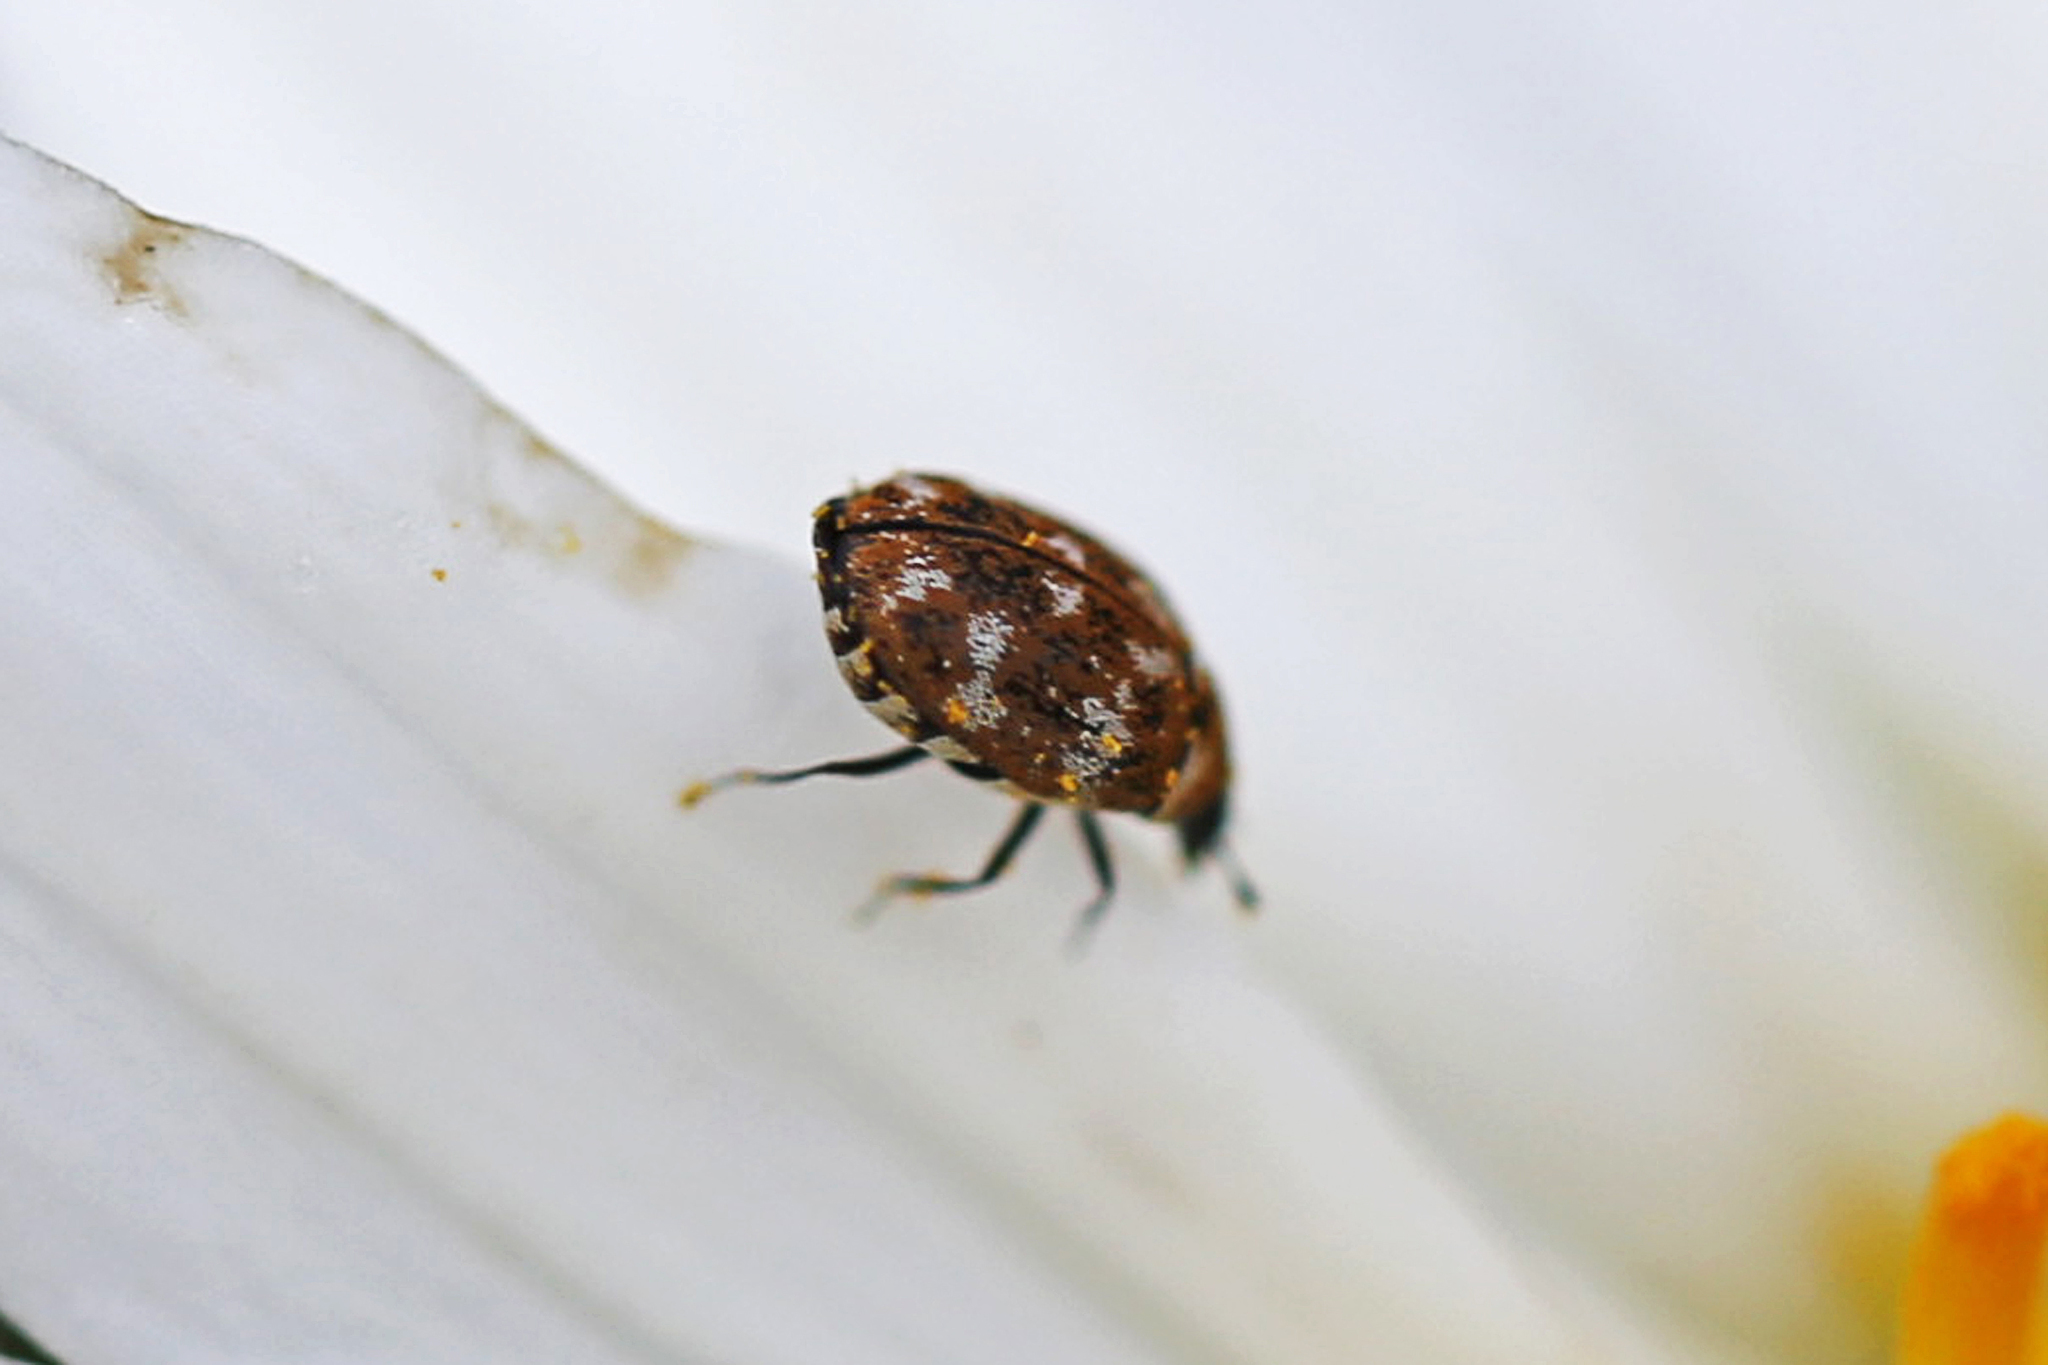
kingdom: Animalia
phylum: Arthropoda
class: Insecta
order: Coleoptera
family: Dermestidae
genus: Anthrenus
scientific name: Anthrenus verbasci
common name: Varied carpet beetle
